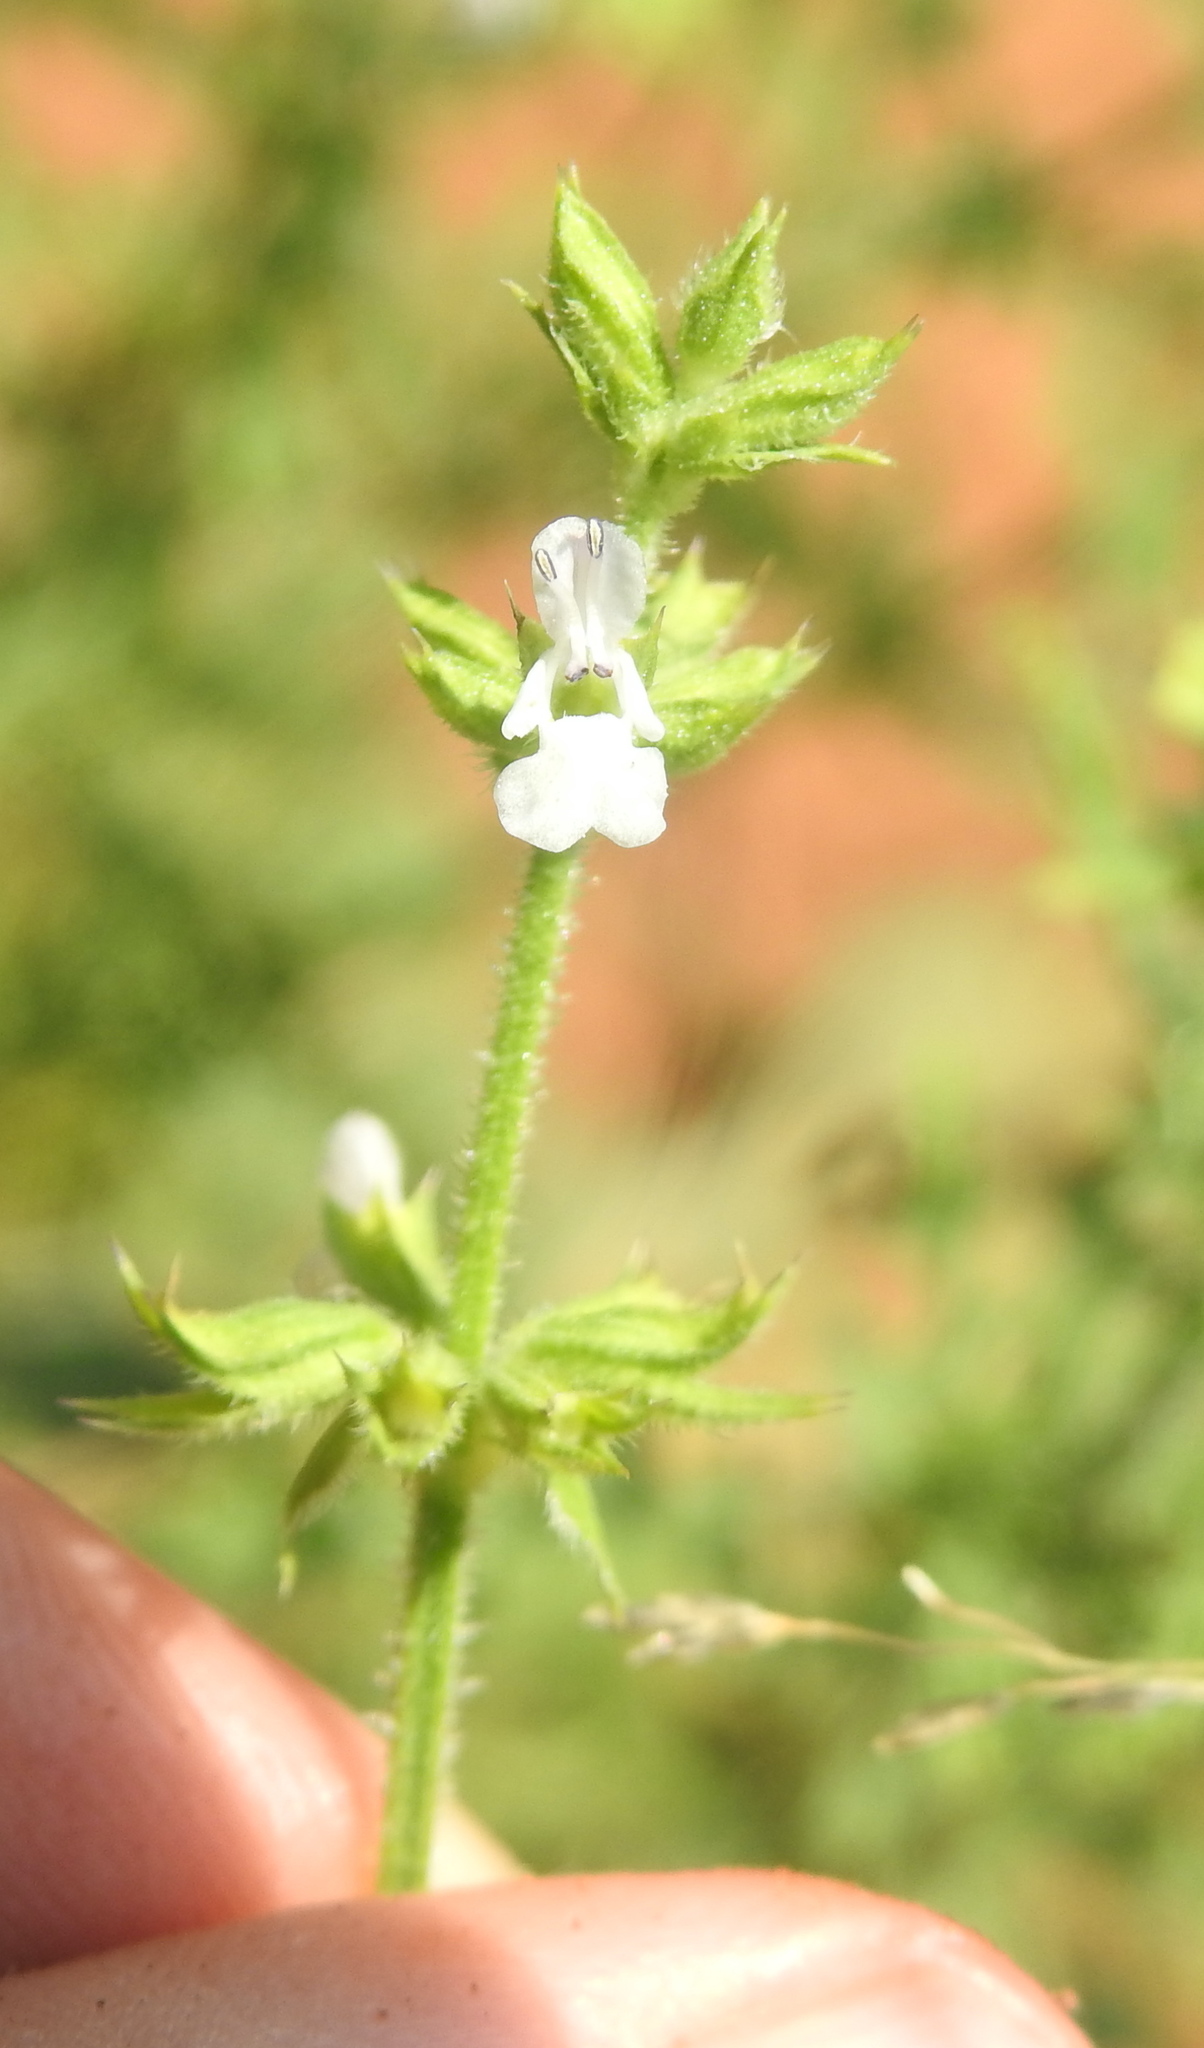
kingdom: Plantae
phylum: Tracheophyta
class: Magnoliopsida
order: Lamiales
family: Lamiaceae
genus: Salvia
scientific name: Salvia runcinata
